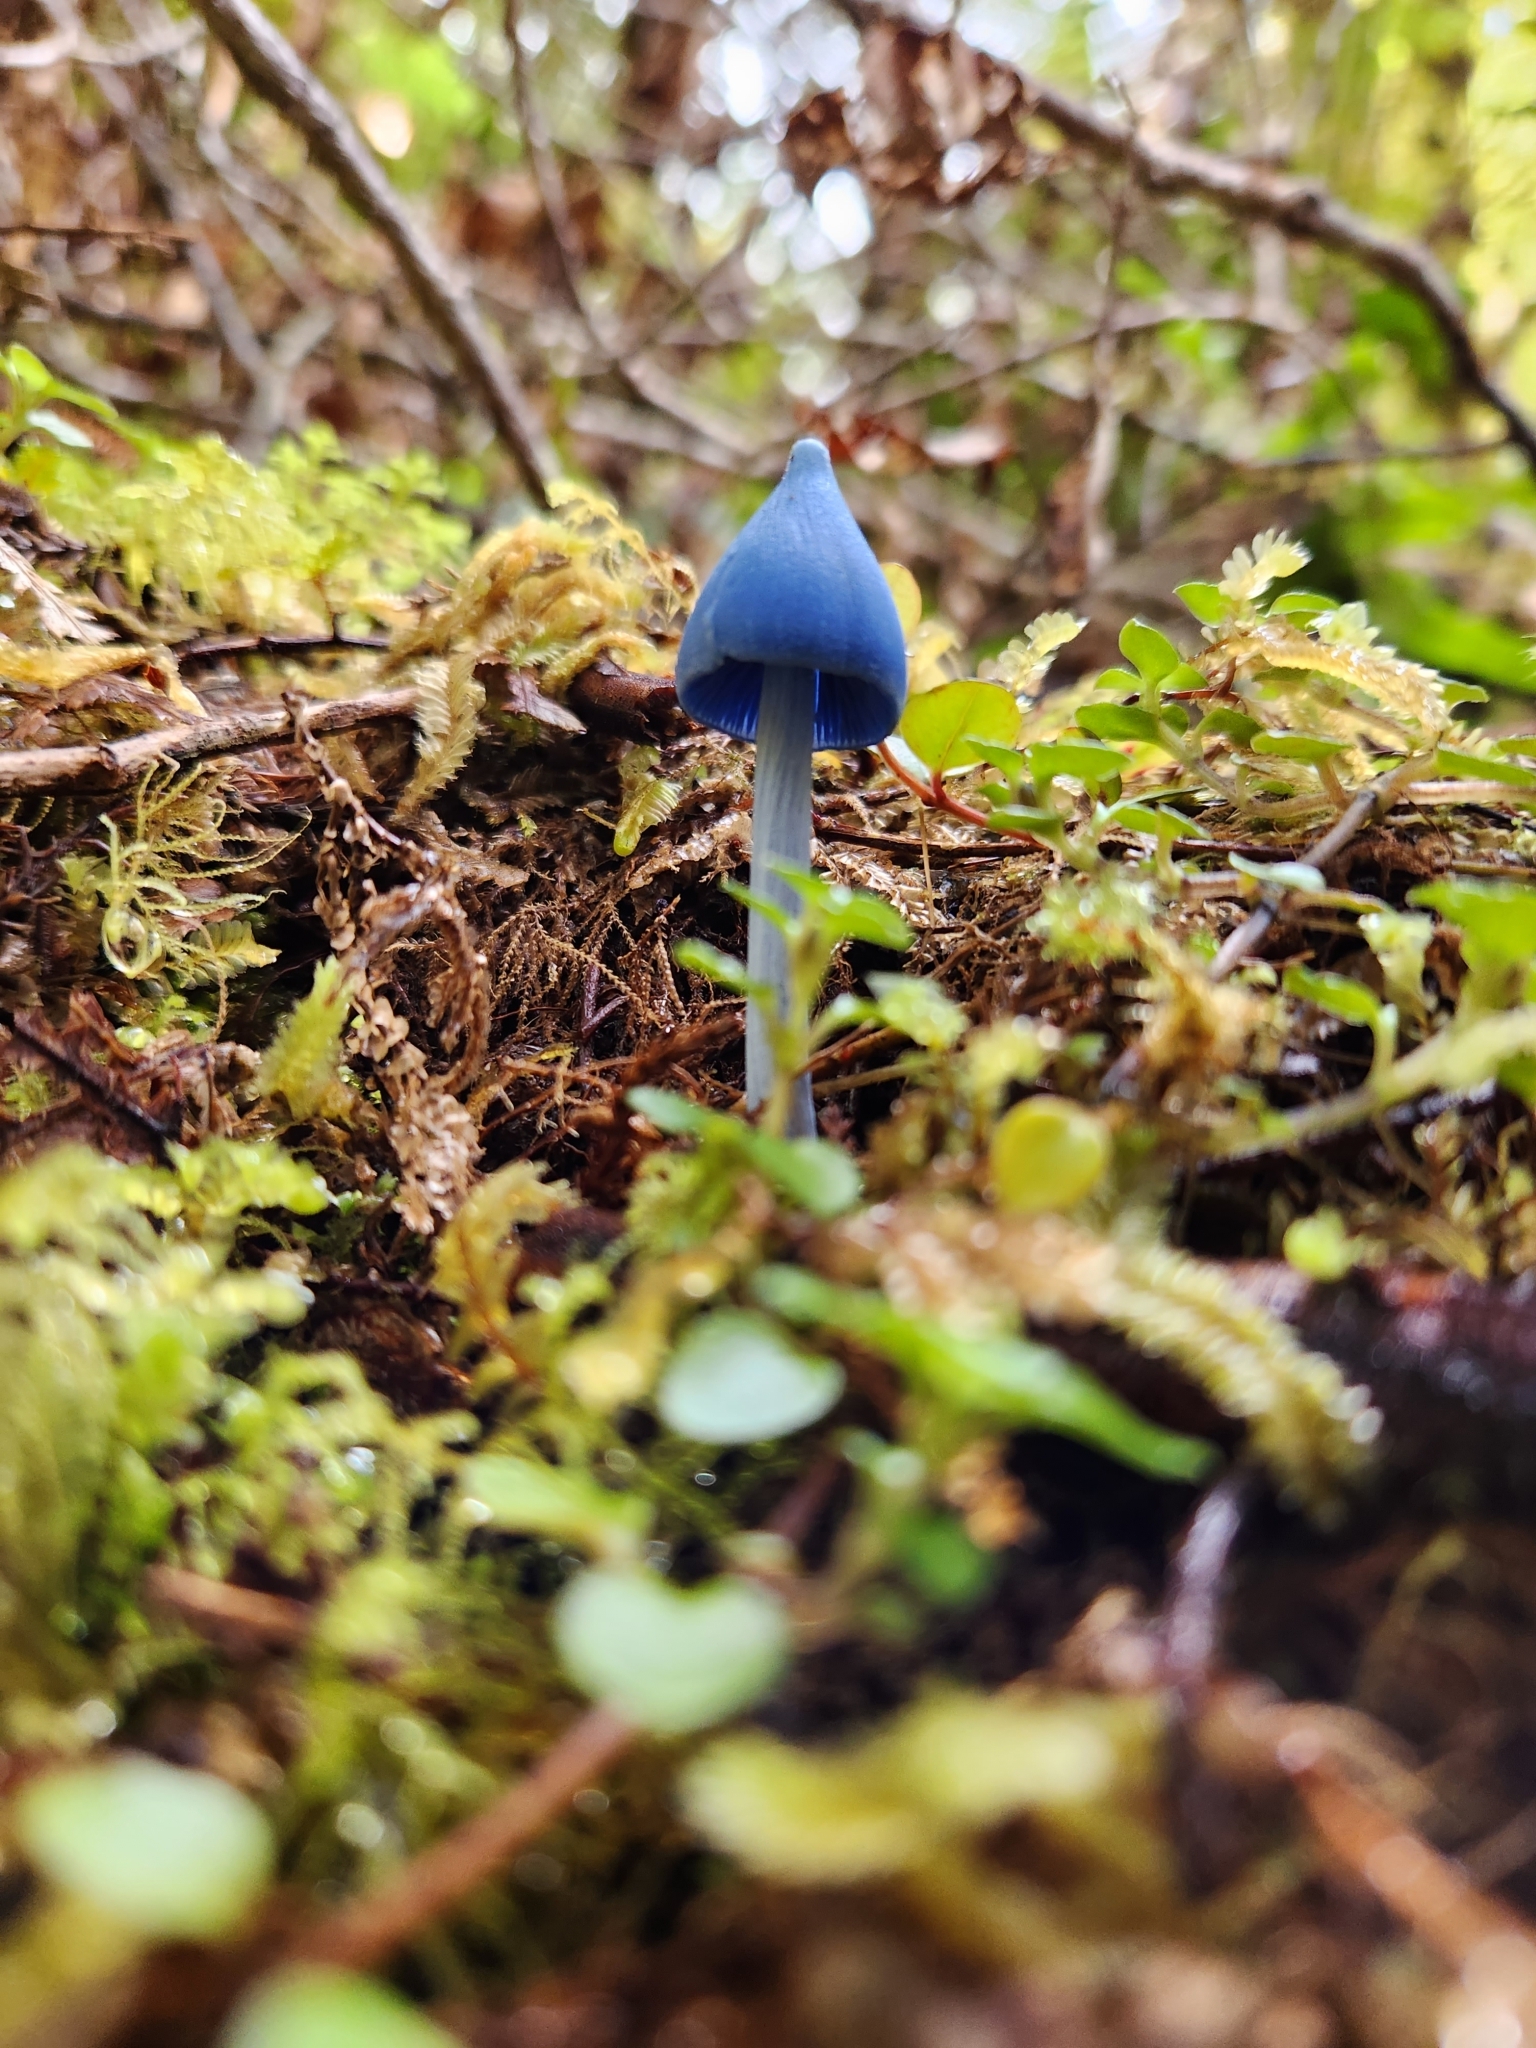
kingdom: Fungi
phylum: Basidiomycota
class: Agaricomycetes
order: Agaricales
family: Entolomataceae
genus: Entoloma
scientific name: Entoloma hochstetteri
